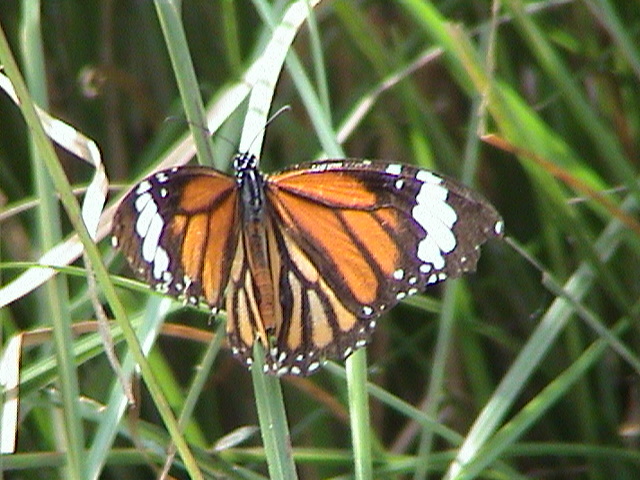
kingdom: Animalia
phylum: Arthropoda
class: Insecta
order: Lepidoptera
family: Nymphalidae
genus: Danaus
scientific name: Danaus genutia
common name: Common tiger butterfly
